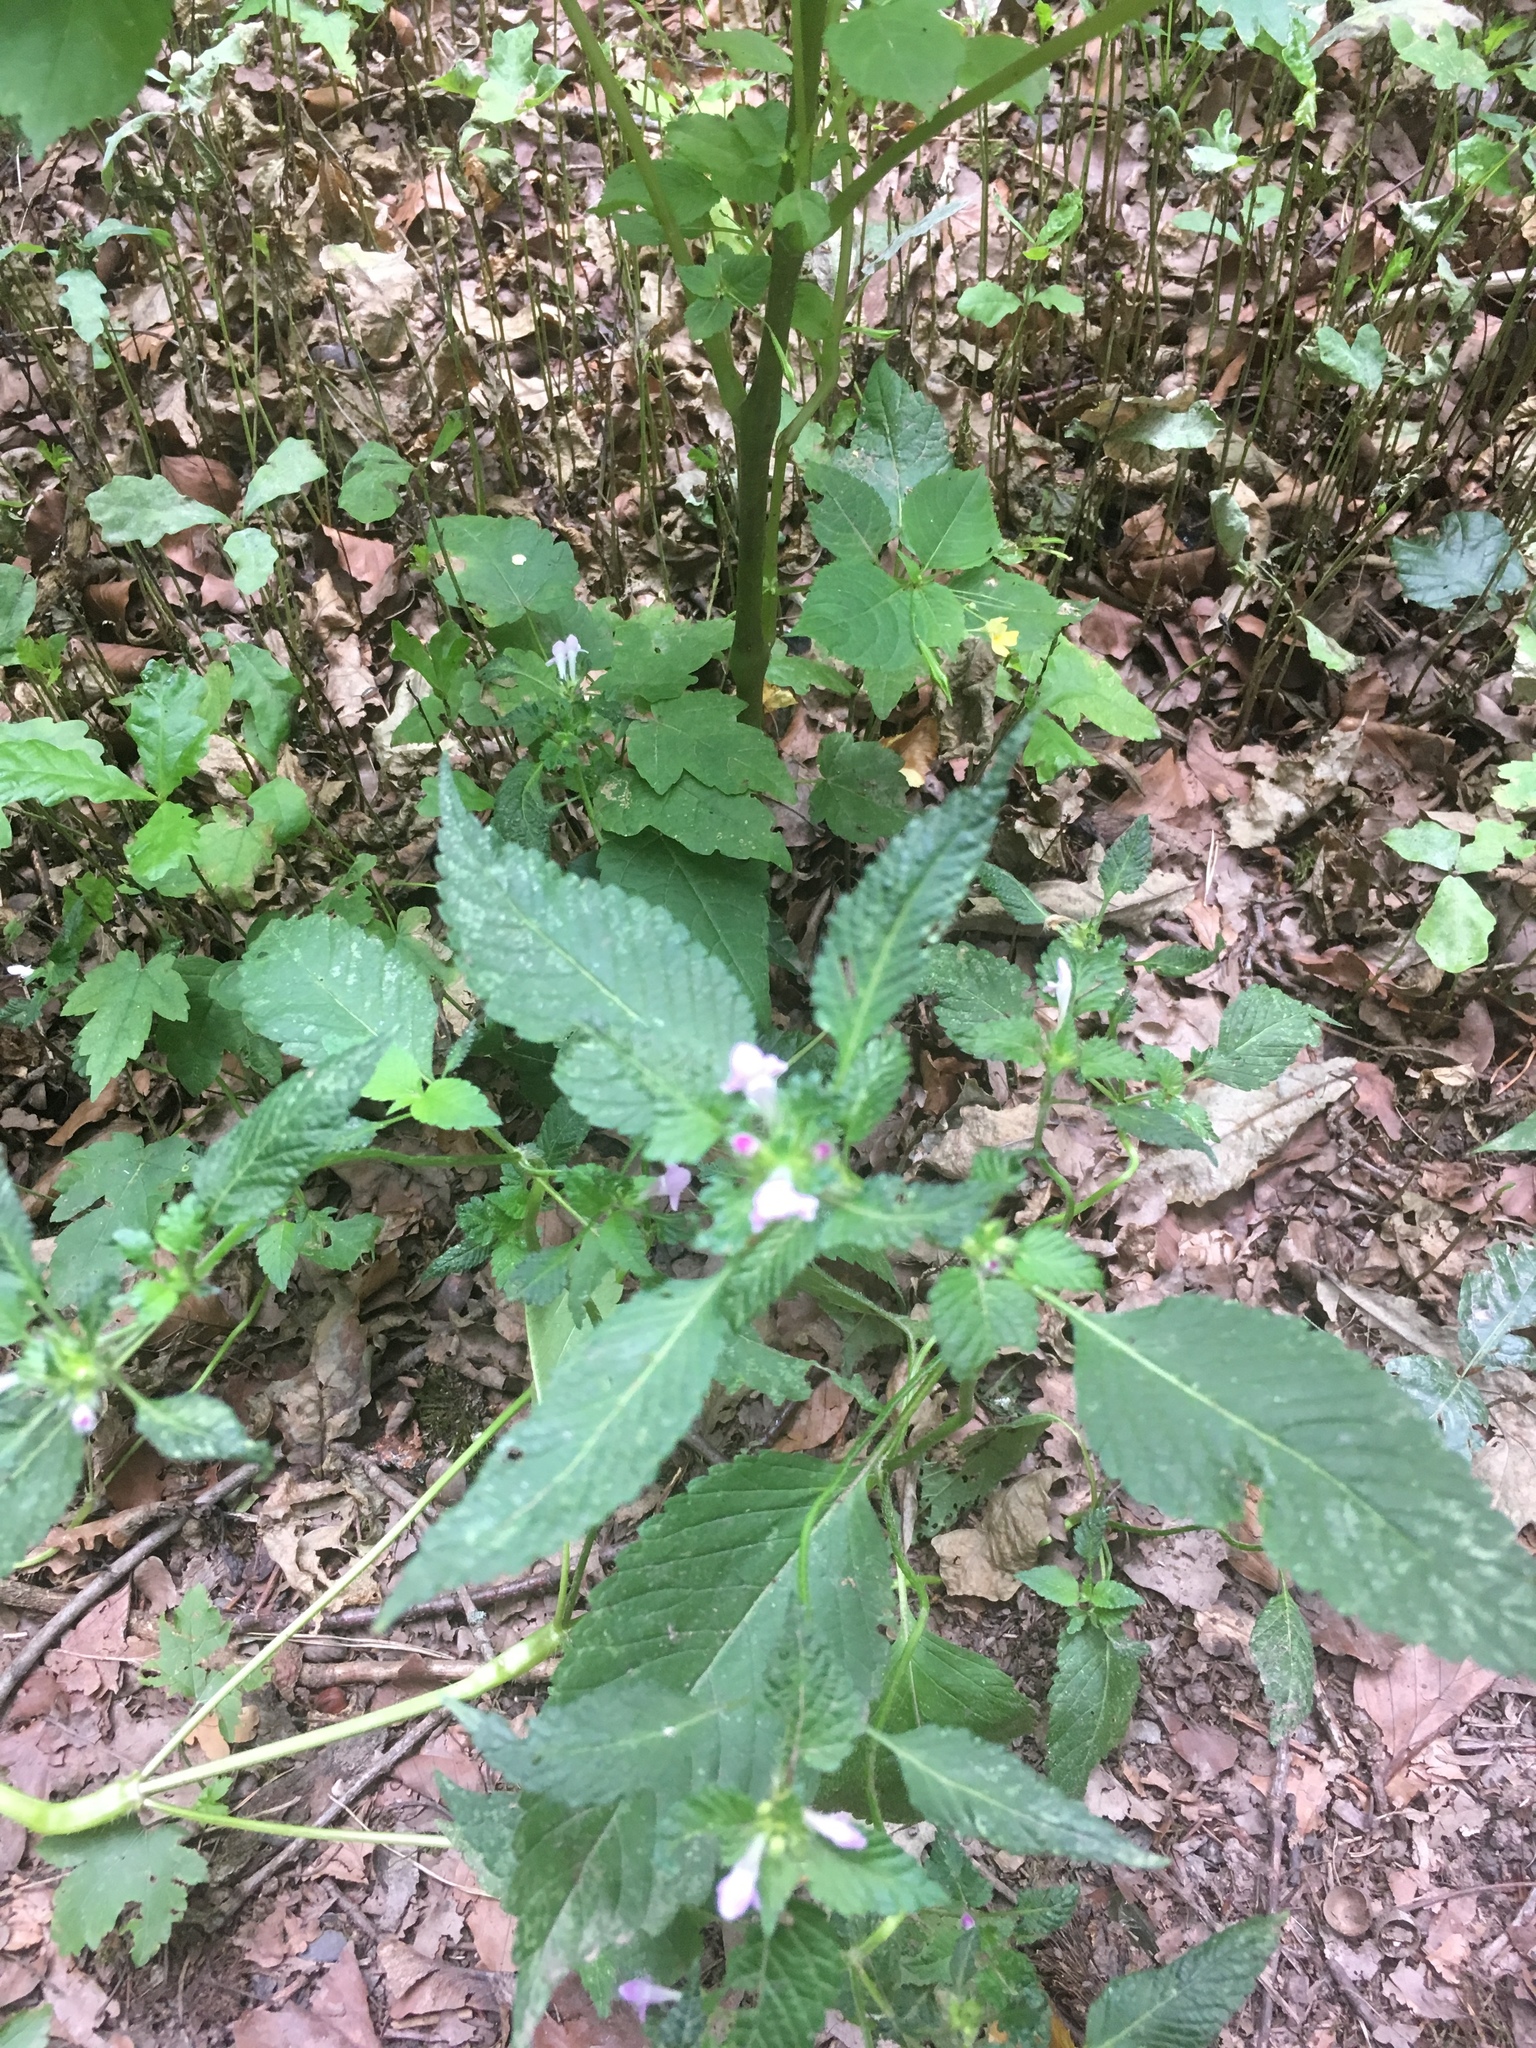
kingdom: Plantae
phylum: Tracheophyta
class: Magnoliopsida
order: Lamiales
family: Lamiaceae
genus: Galeopsis
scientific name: Galeopsis tetrahit
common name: Common hemp-nettle
